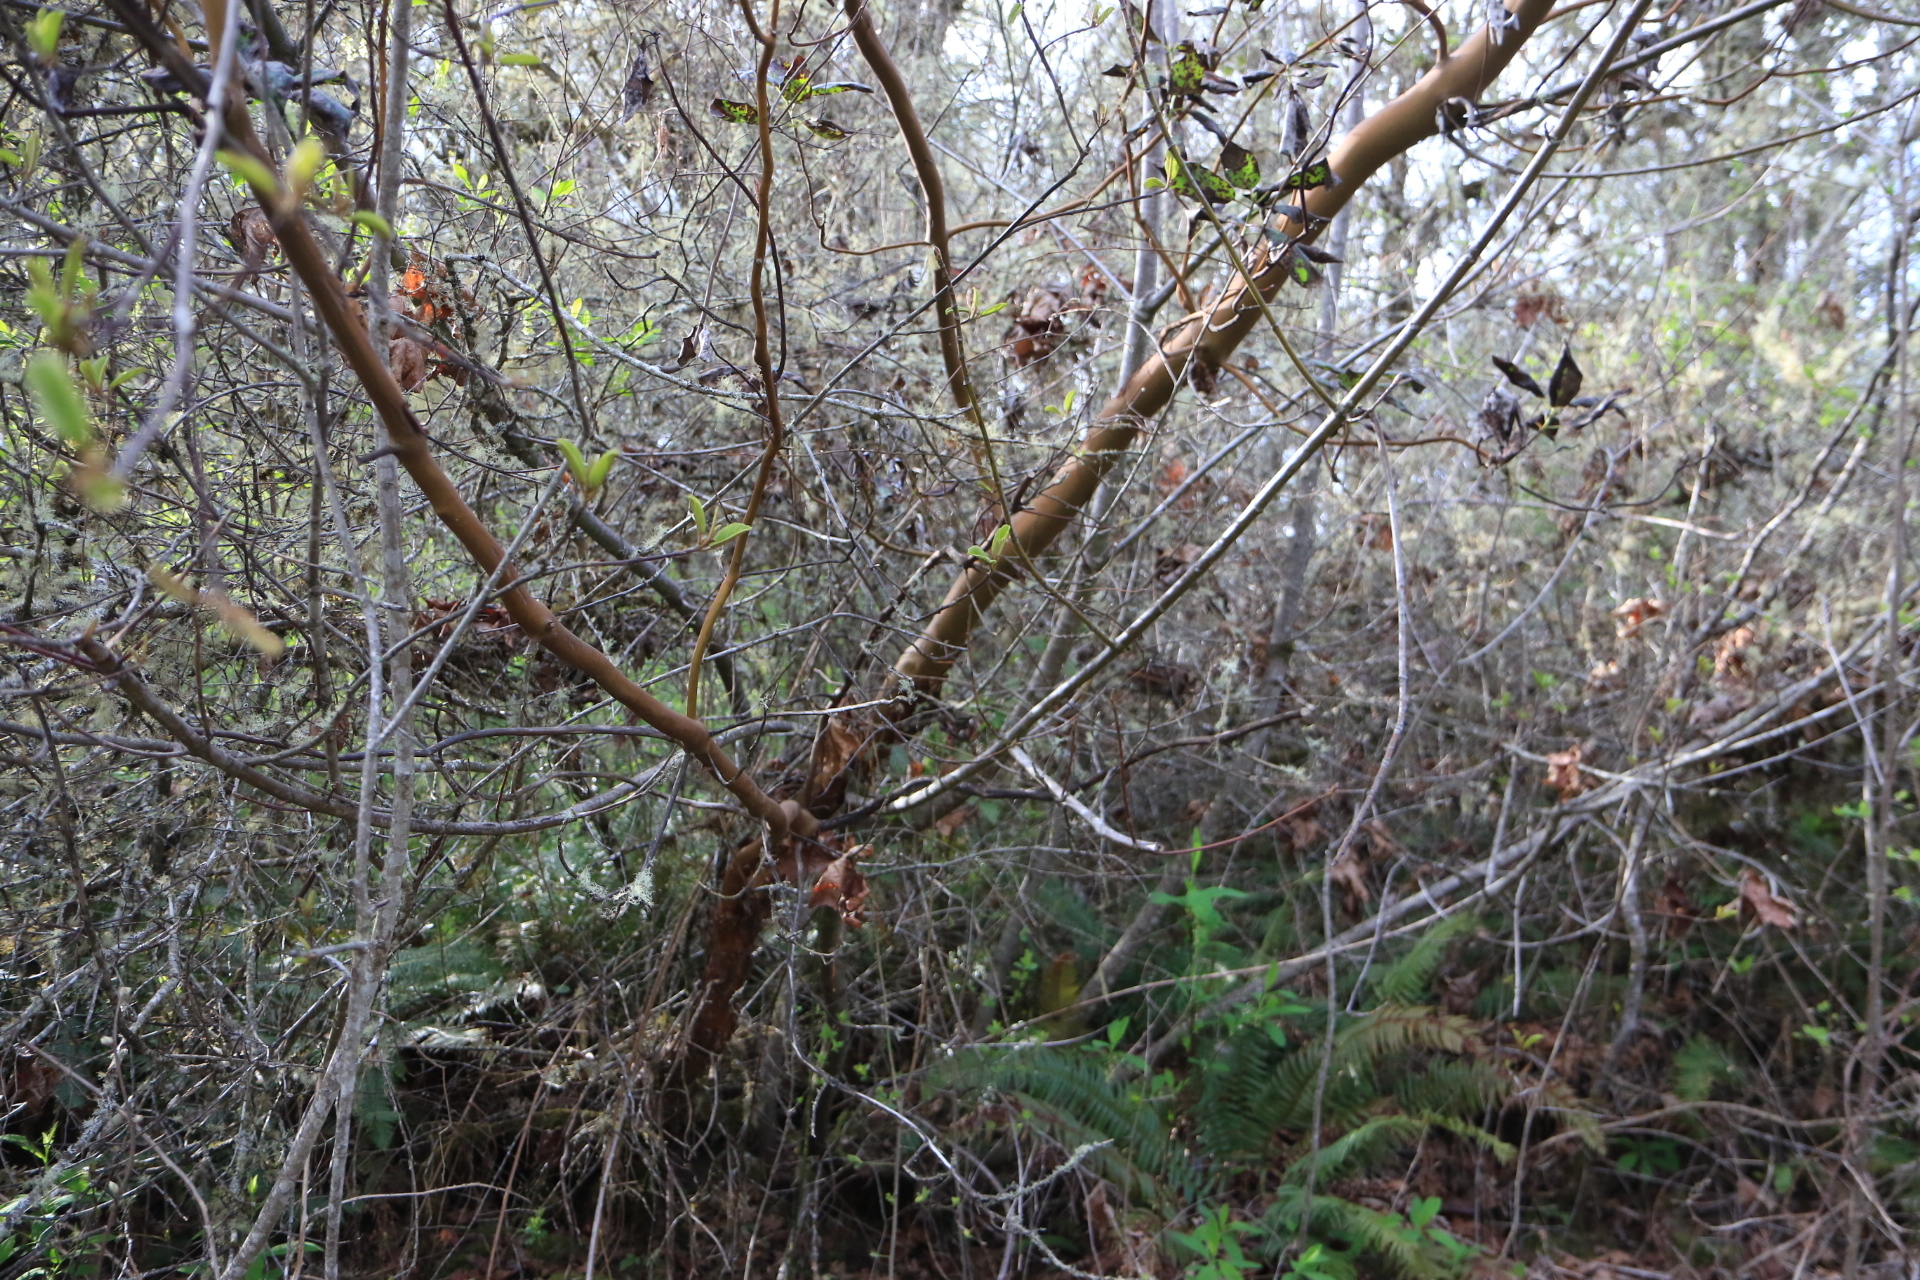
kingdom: Plantae
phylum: Tracheophyta
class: Magnoliopsida
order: Ericales
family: Ericaceae
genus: Arbutus
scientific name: Arbutus menziesii
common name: Pacific madrone
